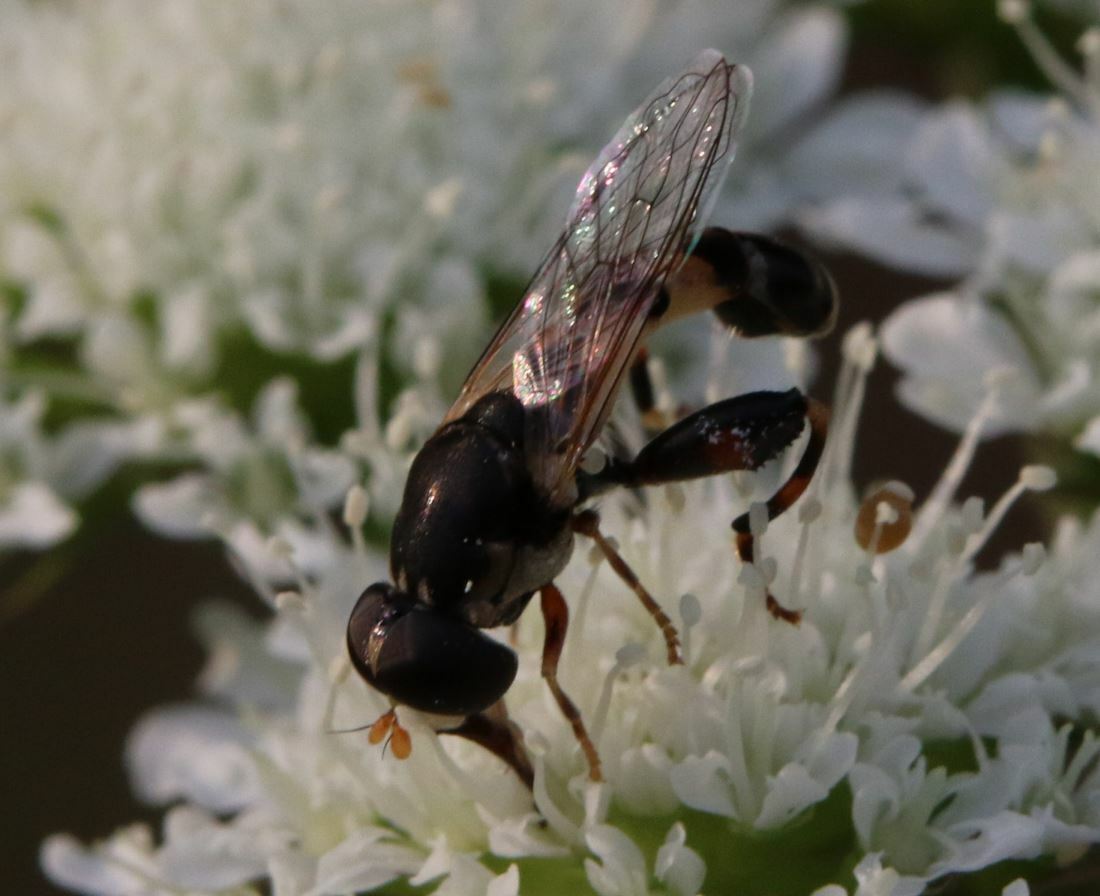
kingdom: Animalia
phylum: Arthropoda
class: Insecta
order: Diptera
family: Syrphidae
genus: Syritta
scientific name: Syritta pipiens
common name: Hover fly
